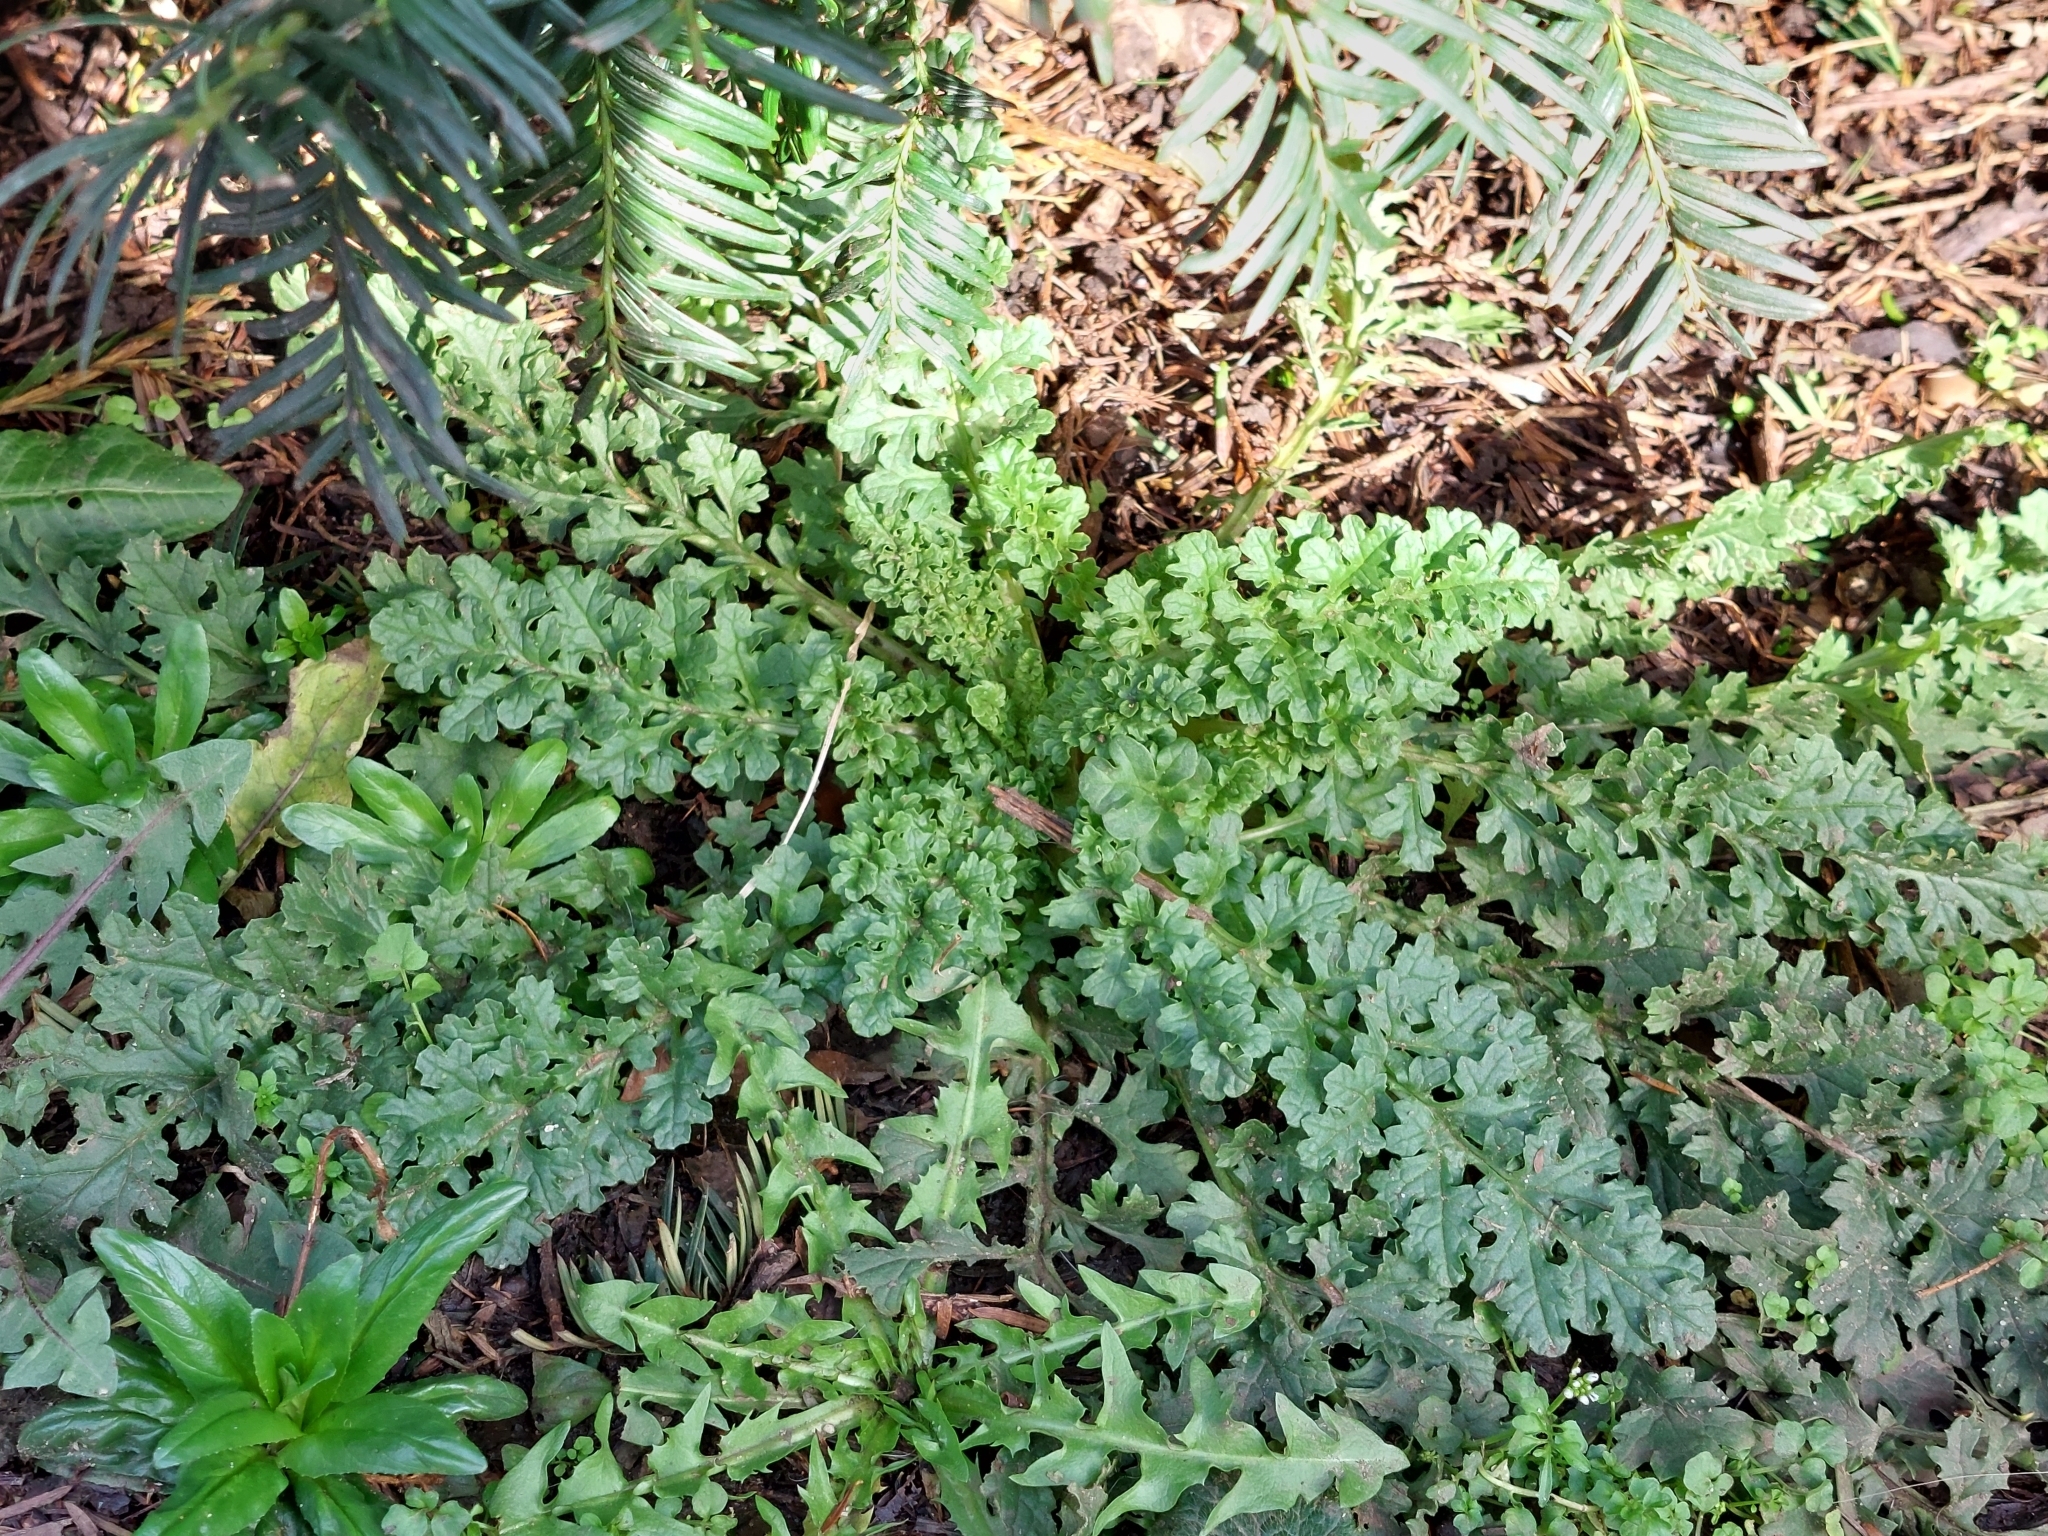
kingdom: Plantae
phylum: Tracheophyta
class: Magnoliopsida
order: Asterales
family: Asteraceae
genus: Jacobaea
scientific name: Jacobaea vulgaris
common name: Stinking willie
